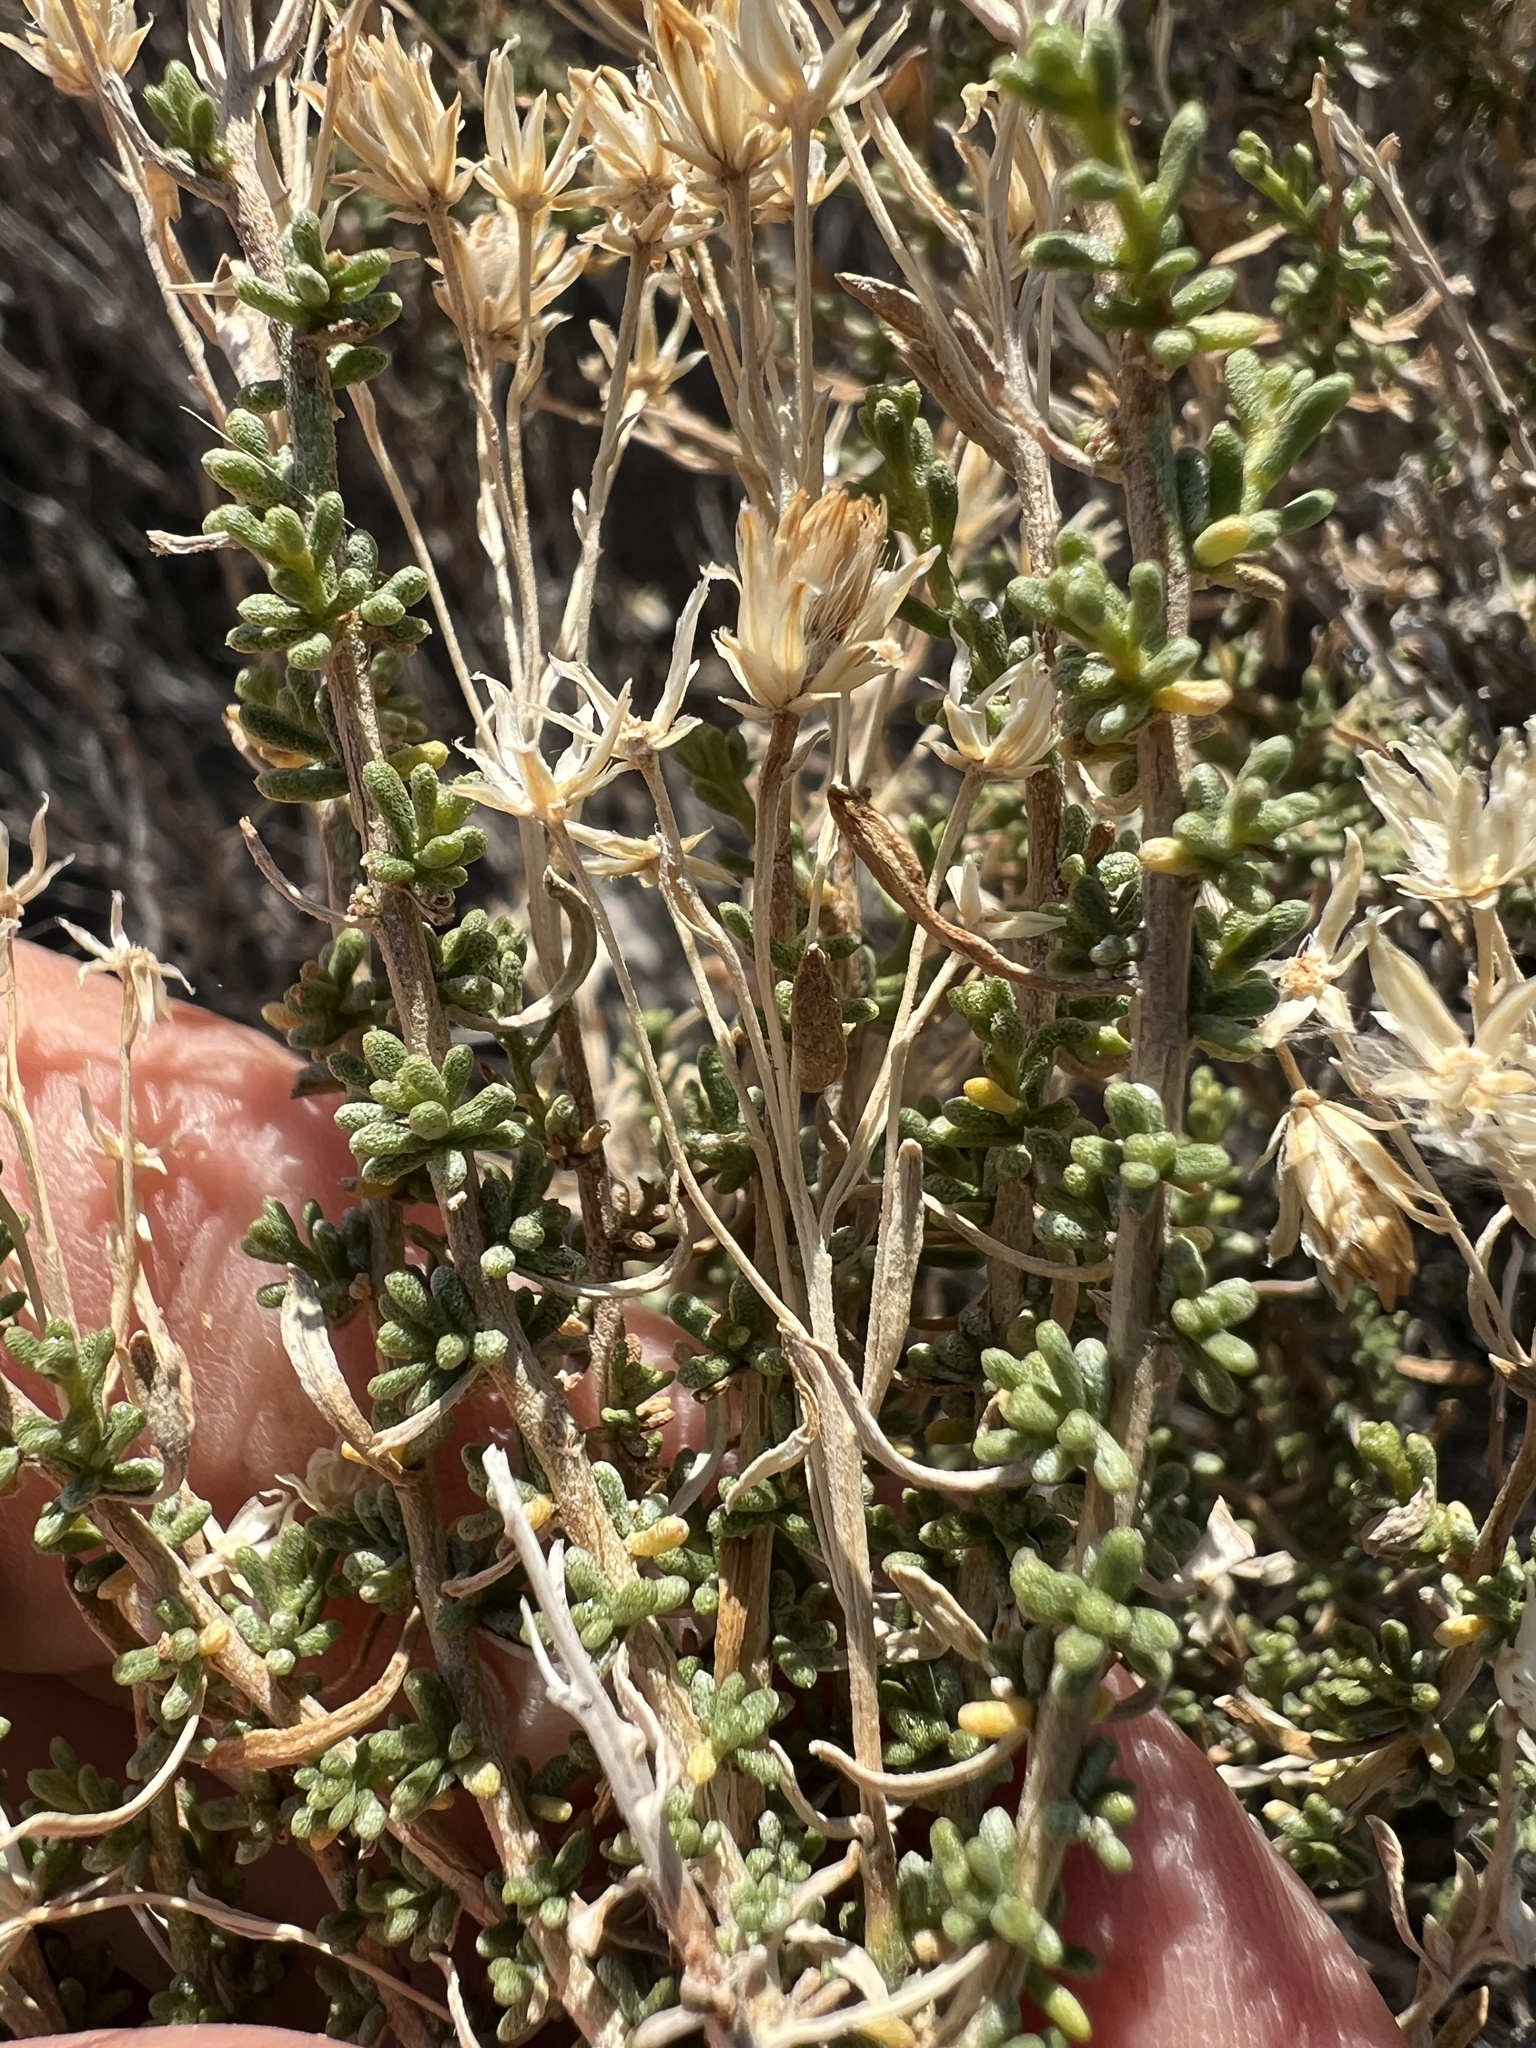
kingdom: Plantae
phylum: Tracheophyta
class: Magnoliopsida
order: Asterales
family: Asteraceae
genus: Ericameria
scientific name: Ericameria cooperi
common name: Cooper's goldenbush
